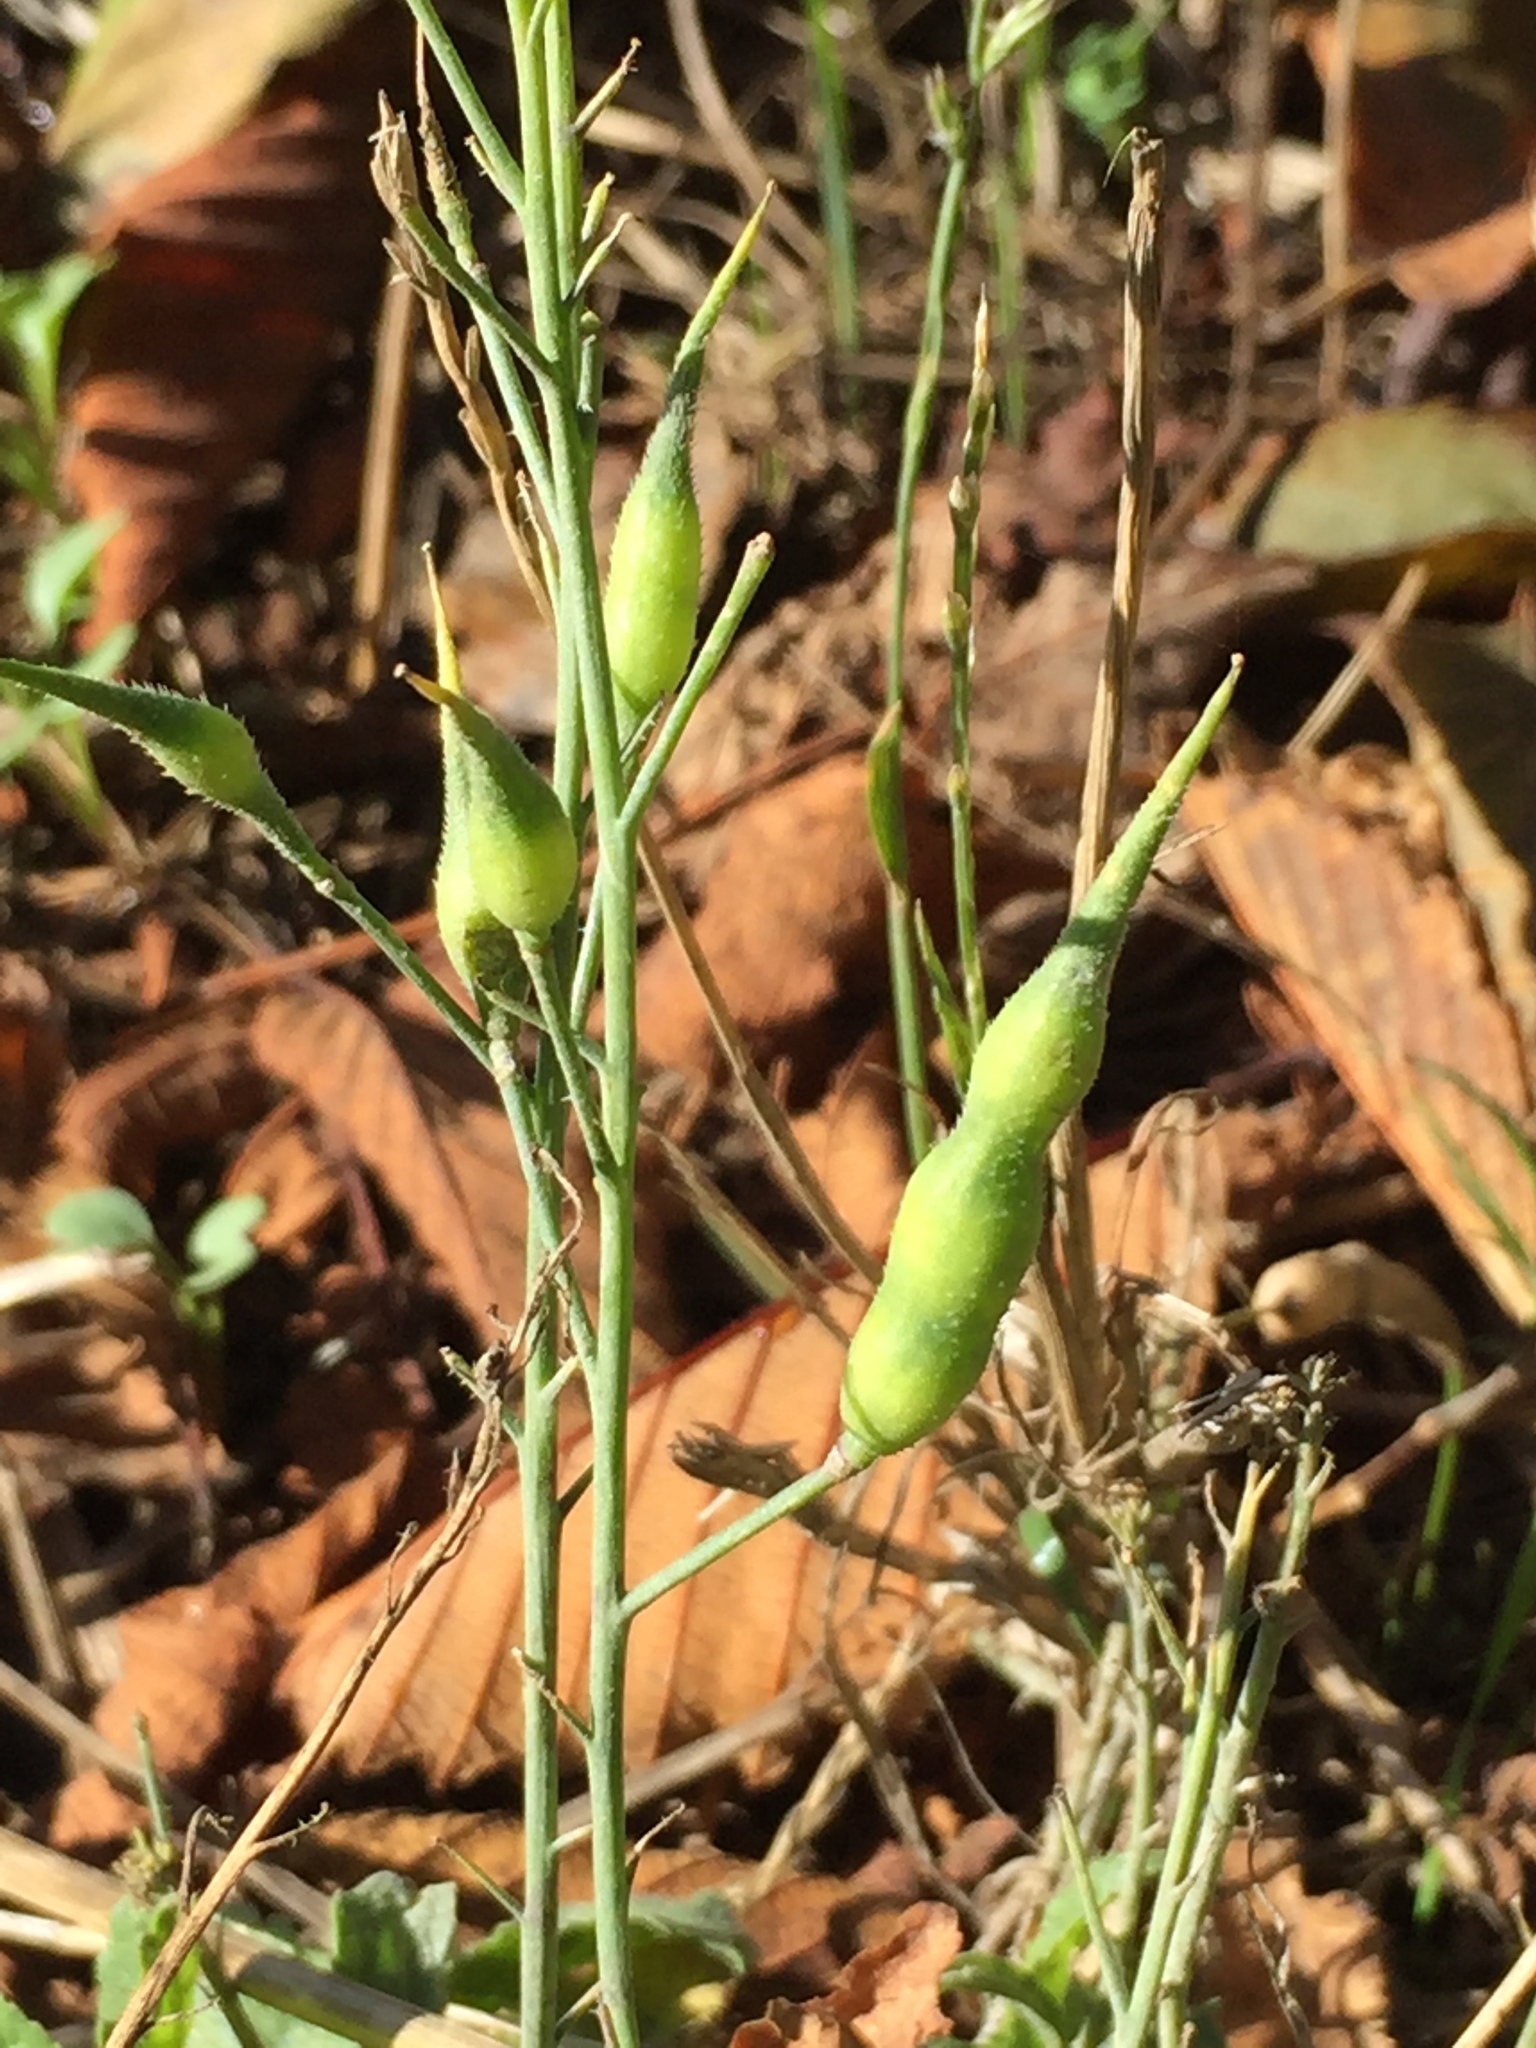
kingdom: Plantae
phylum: Tracheophyta
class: Magnoliopsida
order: Brassicales
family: Brassicaceae
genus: Raphanus
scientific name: Raphanus sativus
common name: Cultivated radish
